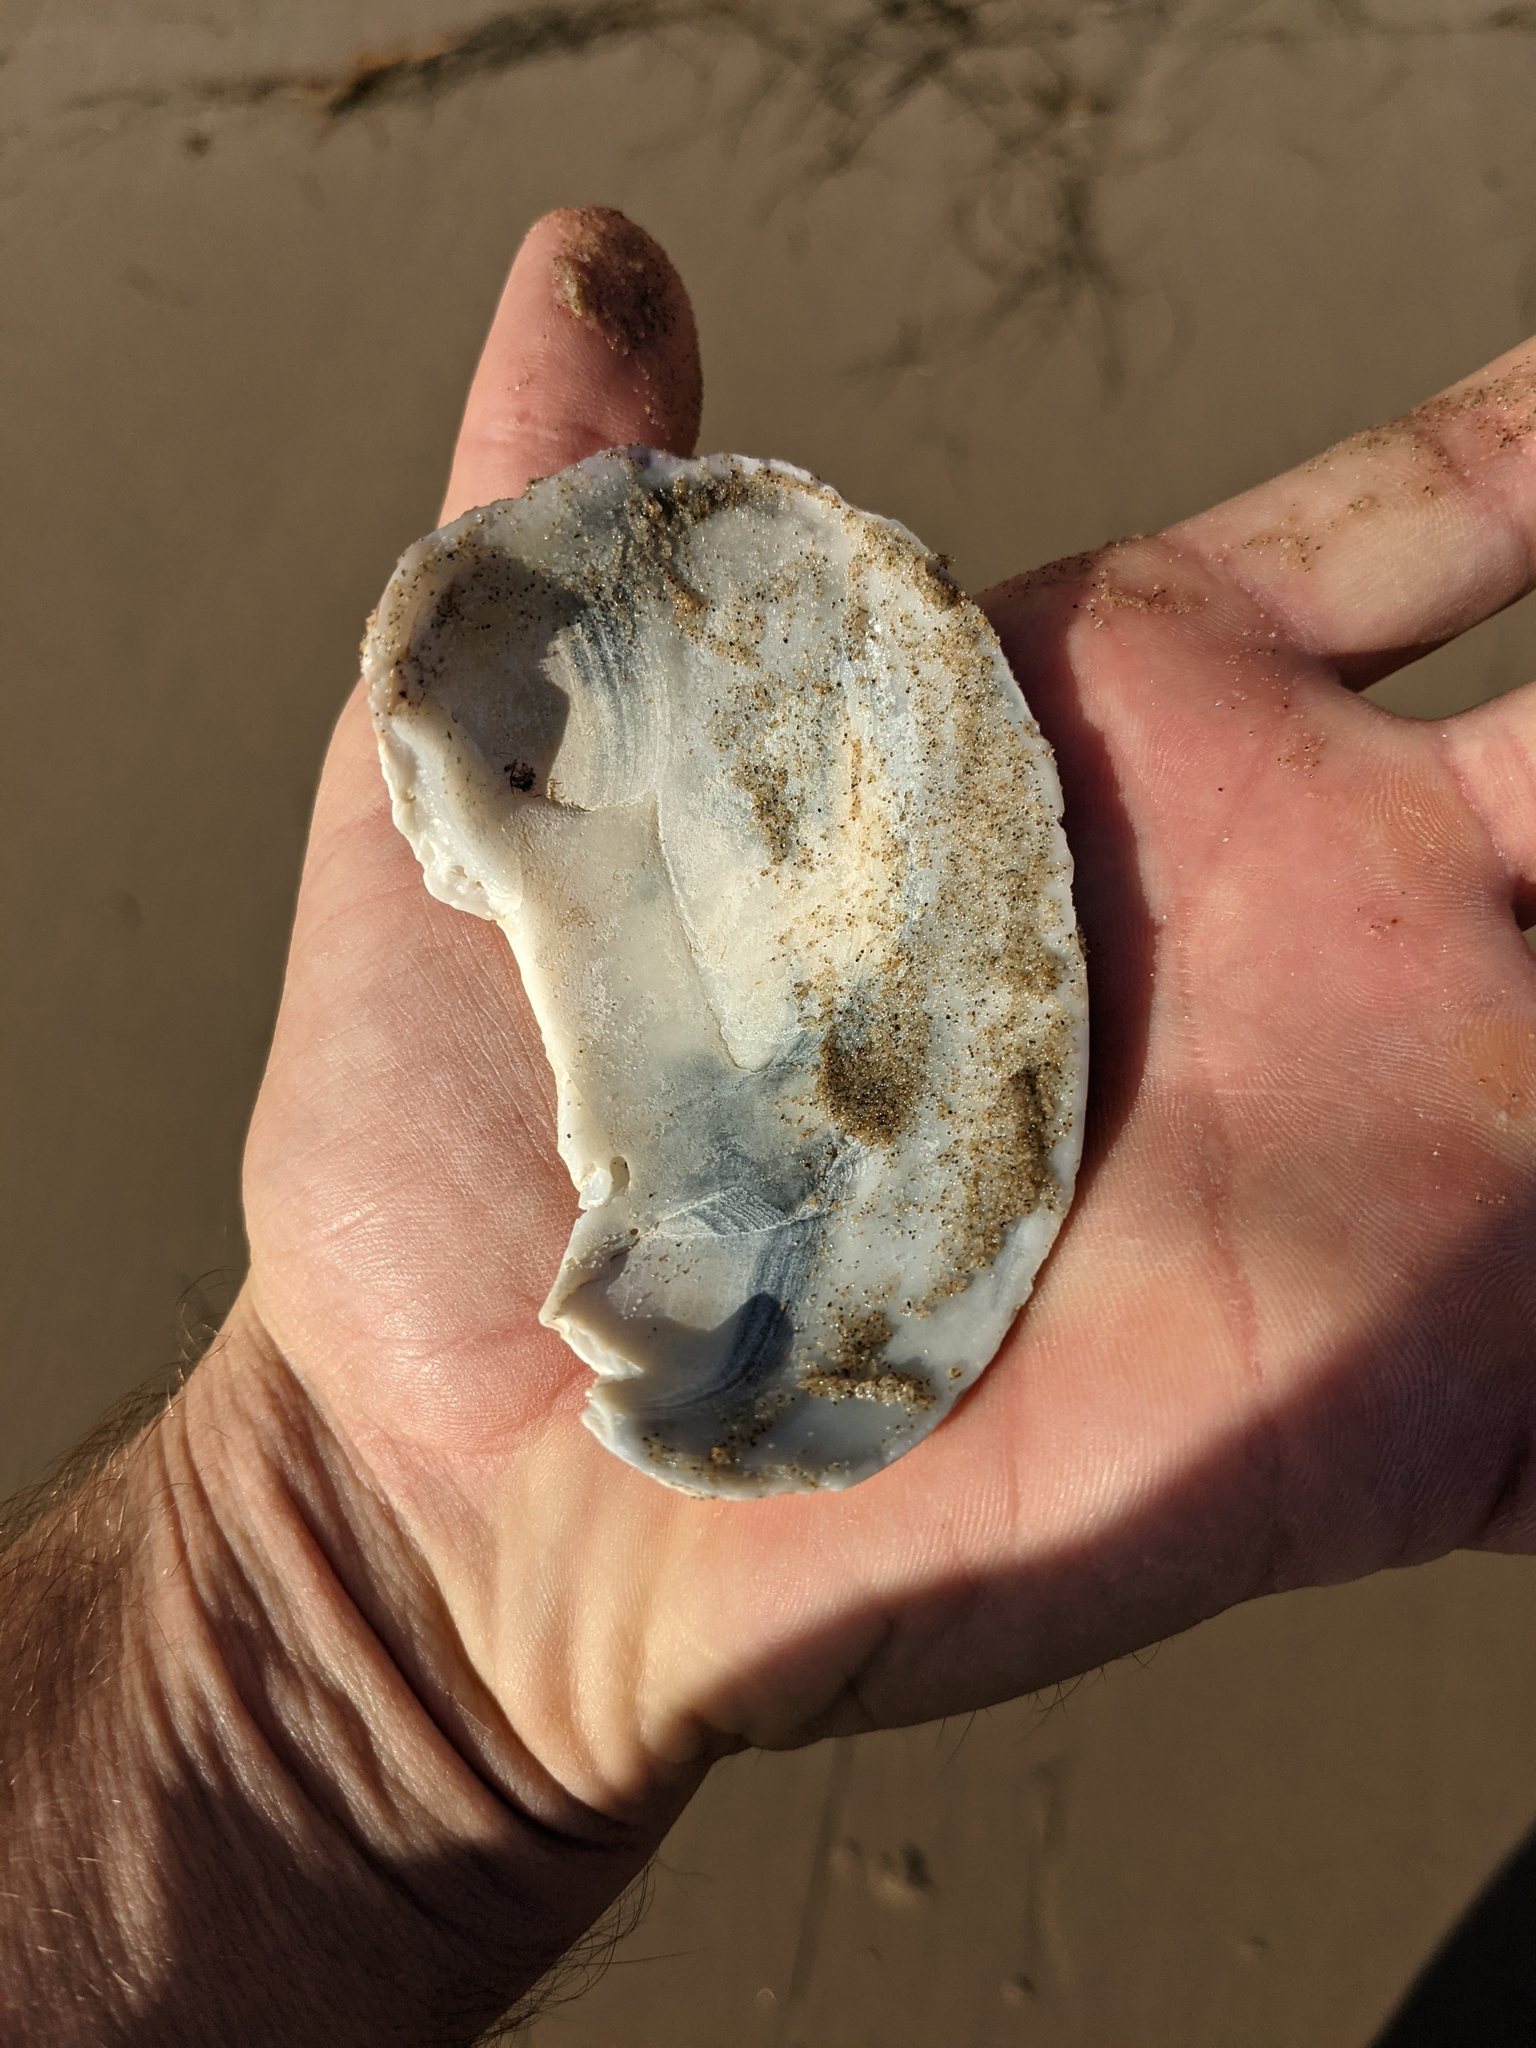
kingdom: Animalia
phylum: Mollusca
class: Bivalvia
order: Venerida
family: Veneridae
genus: Saxidomus
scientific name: Saxidomus nuttalli
